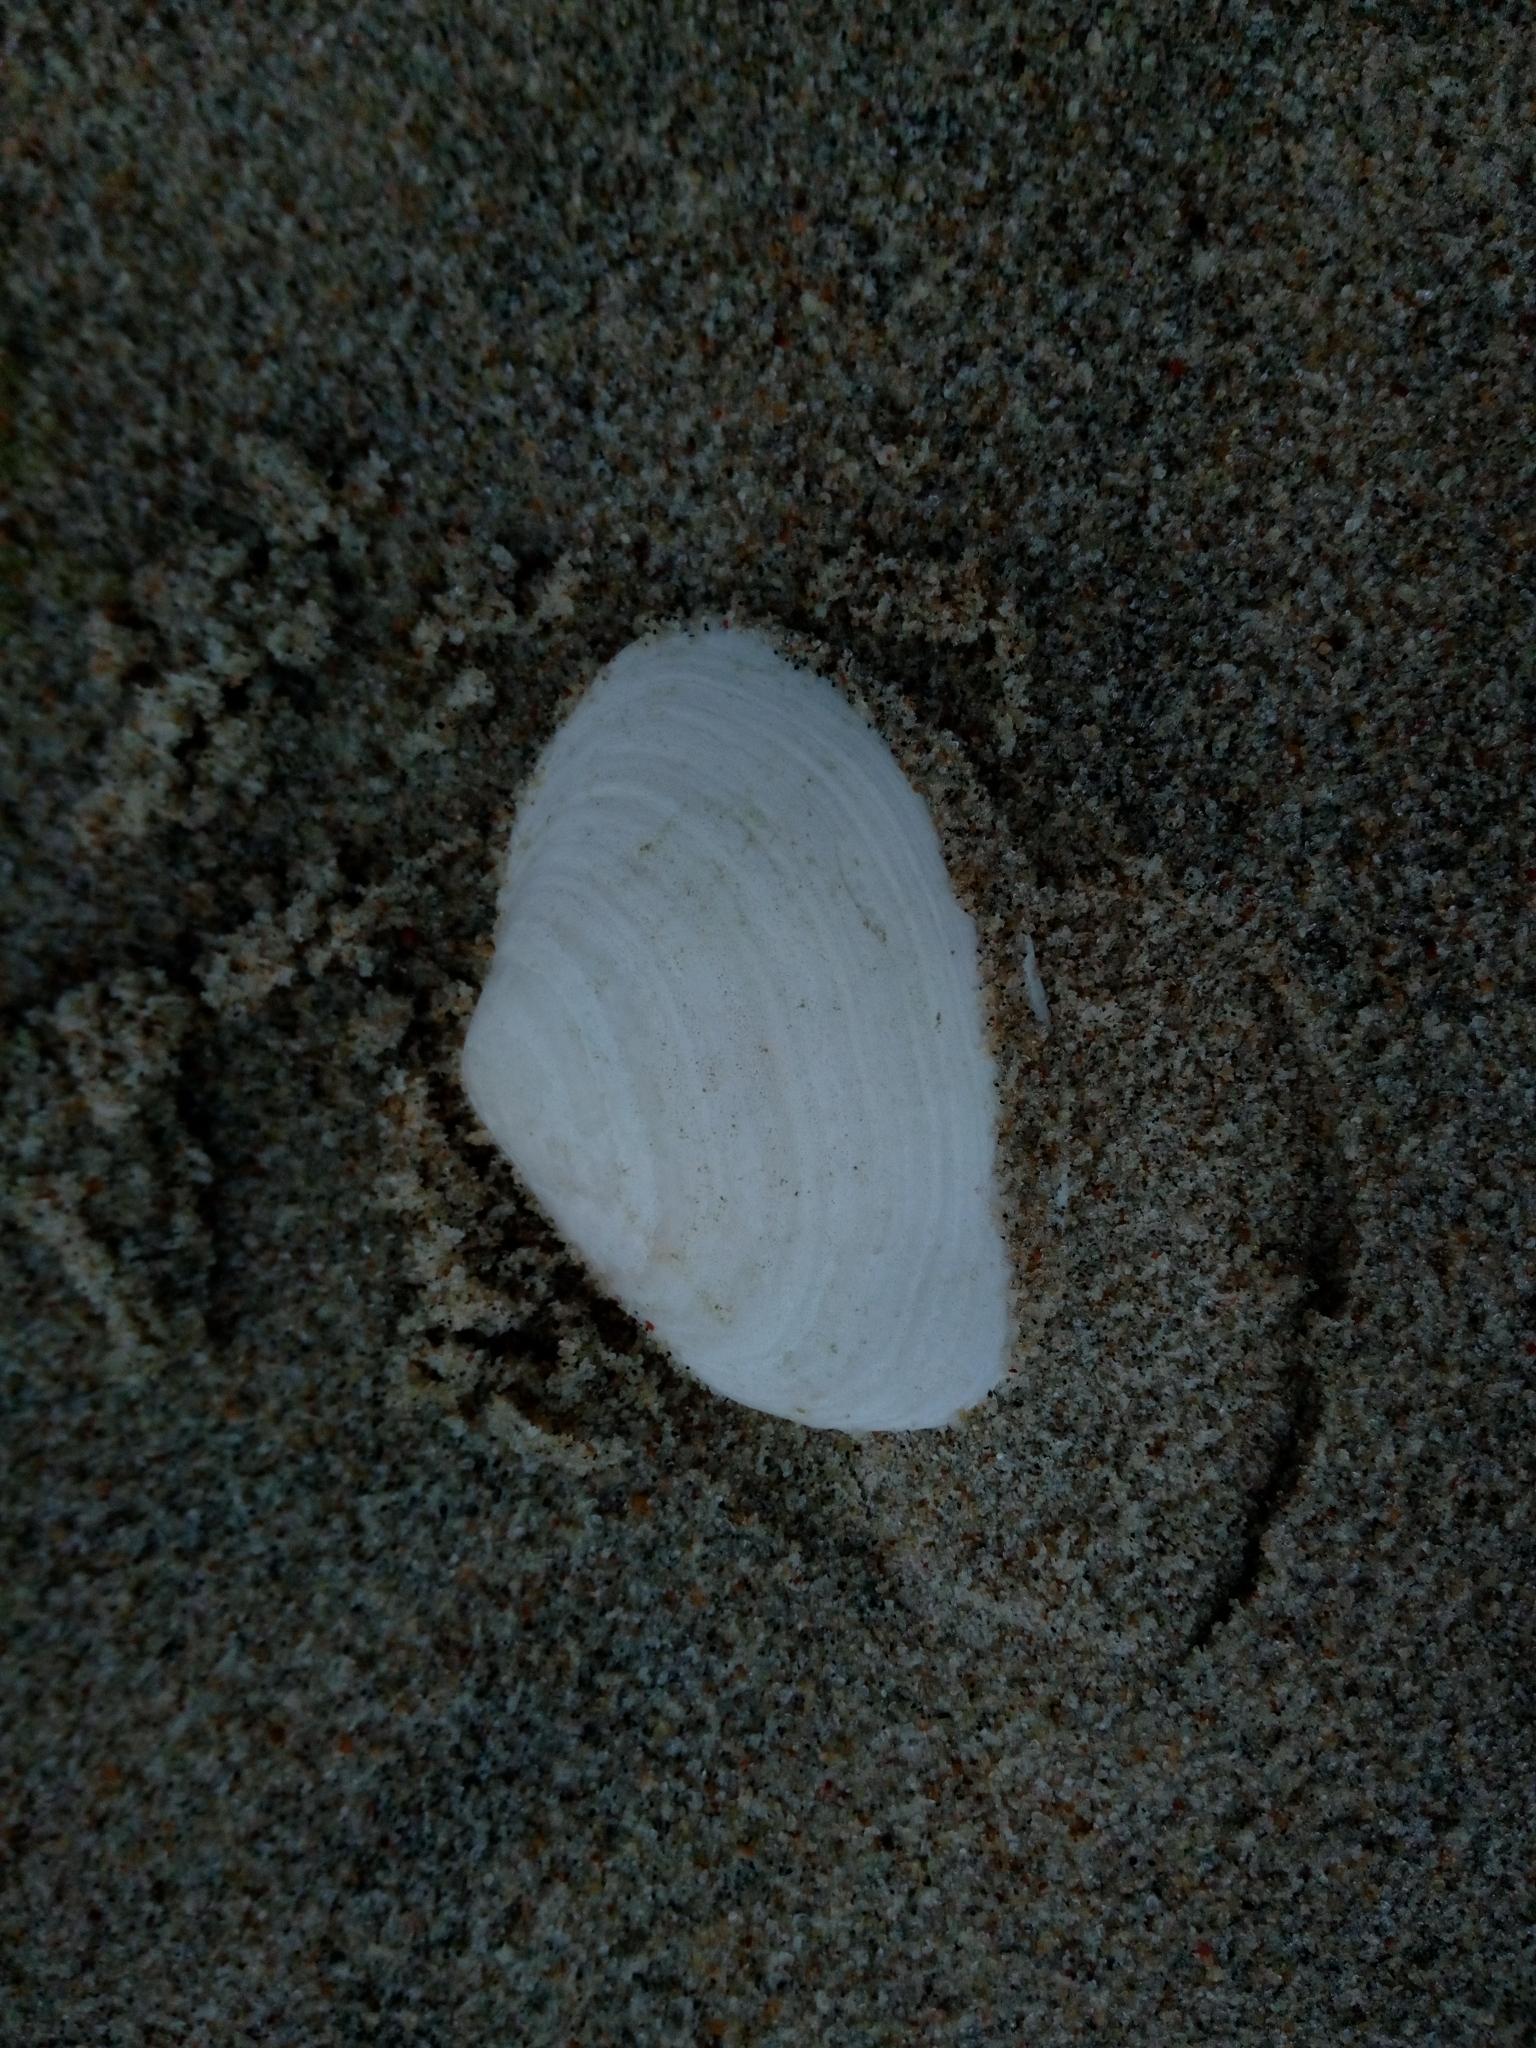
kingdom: Animalia
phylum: Mollusca
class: Bivalvia
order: Myida
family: Myidae
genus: Mya
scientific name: Mya arenaria
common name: Soft-shelled clam
